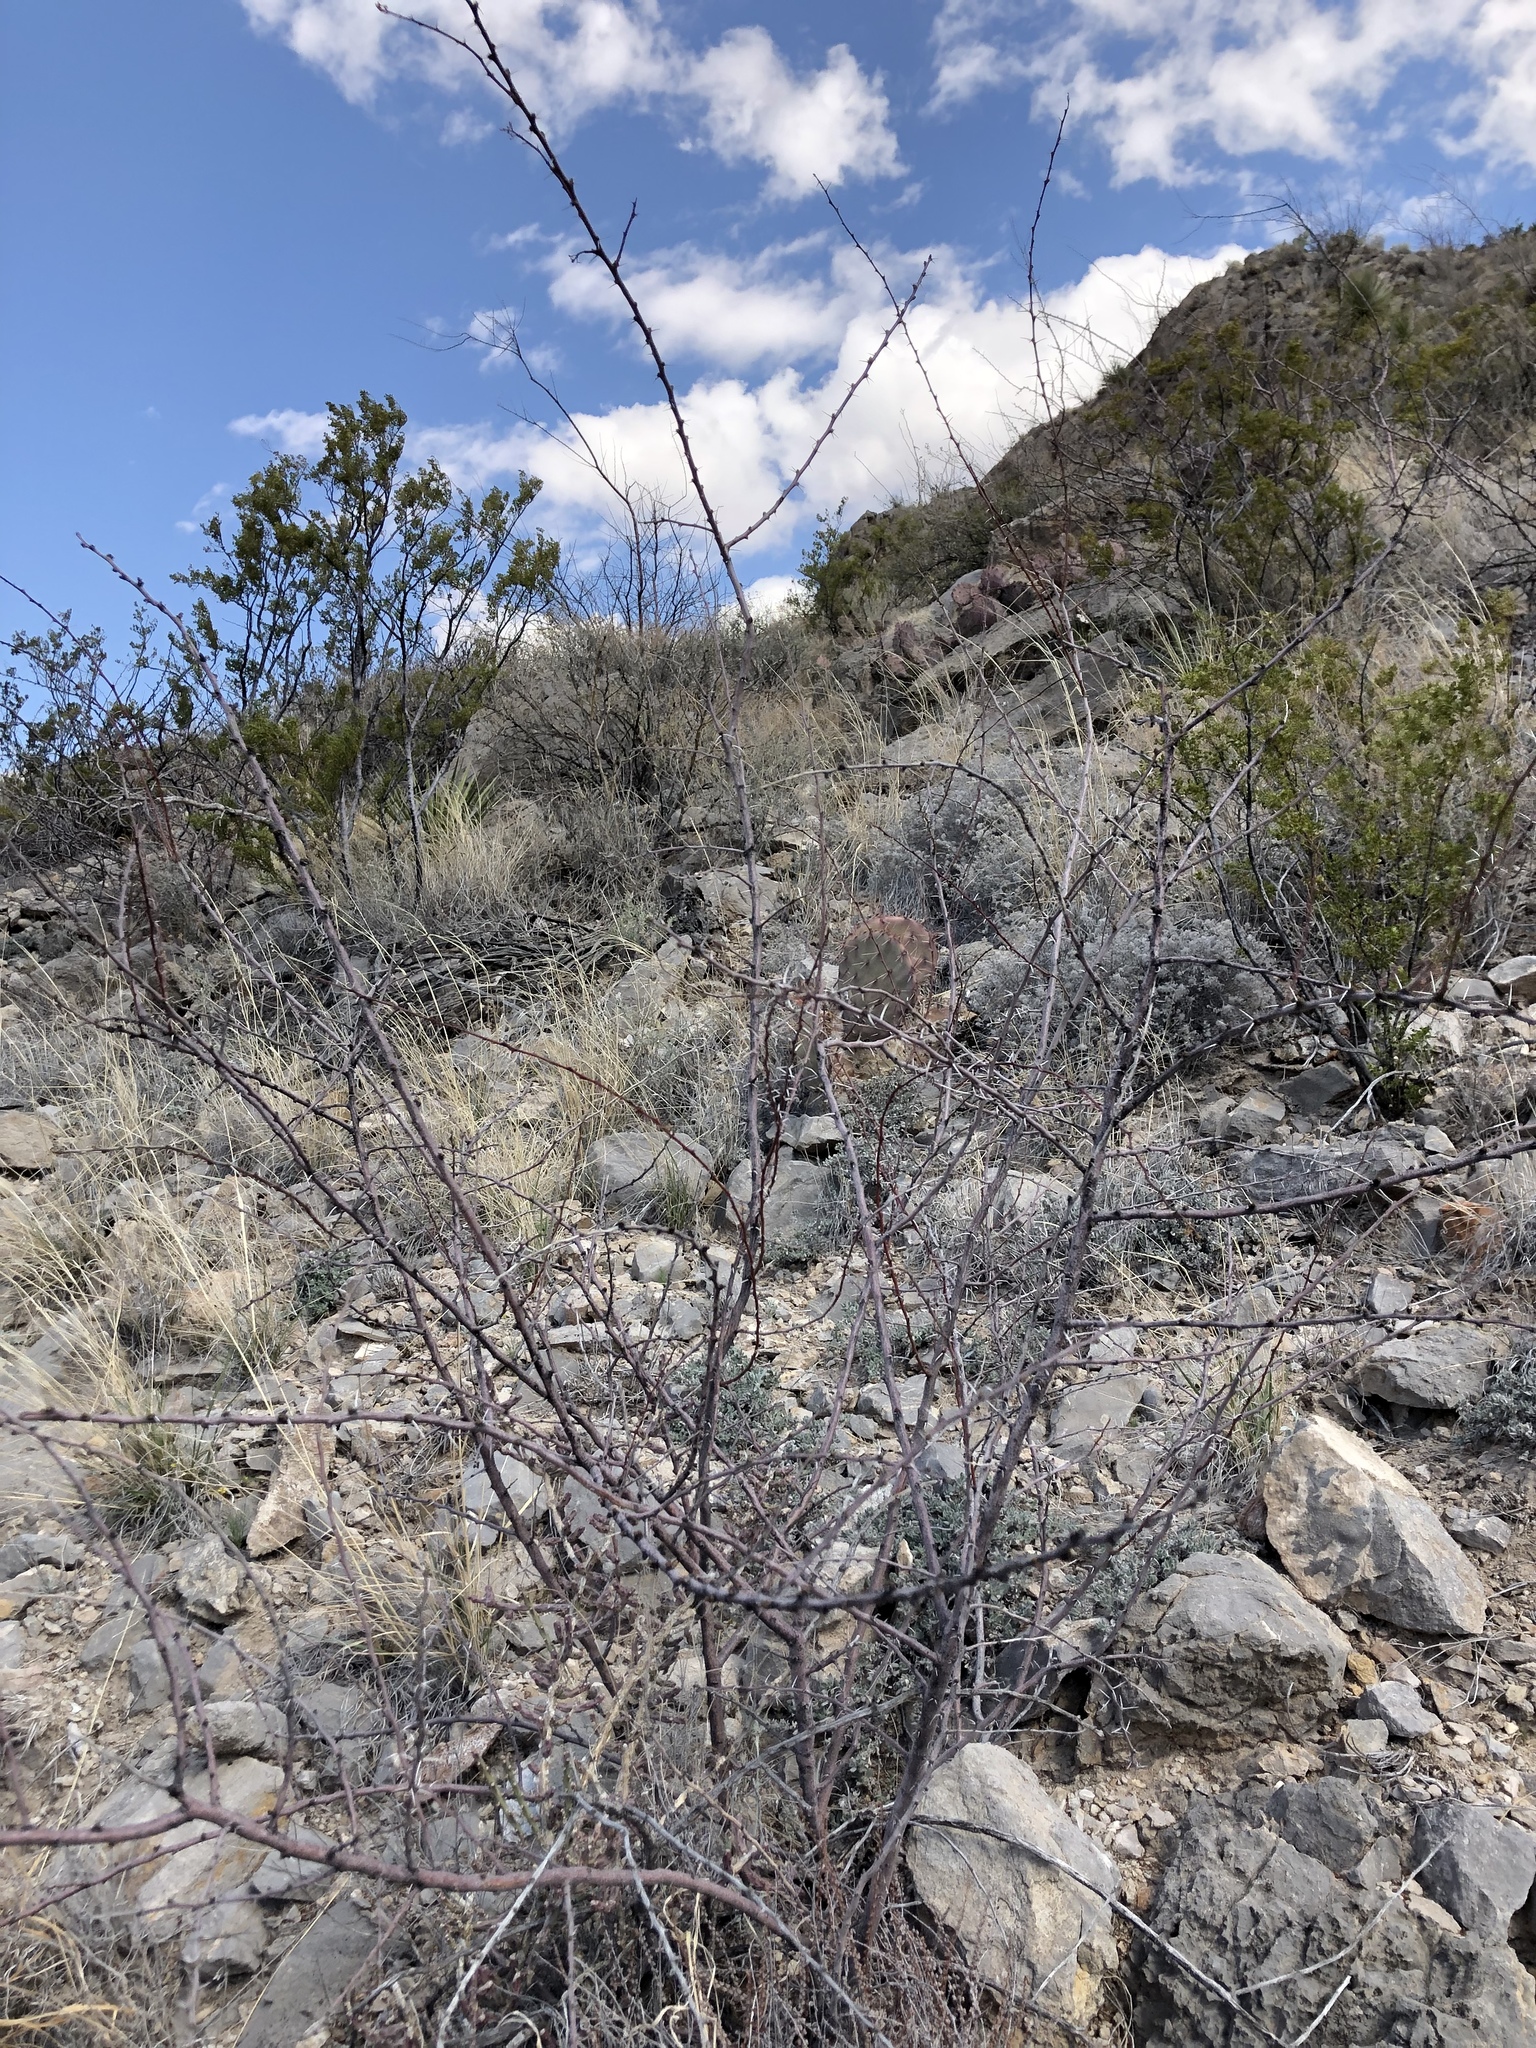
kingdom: Plantae
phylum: Tracheophyta
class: Magnoliopsida
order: Fabales
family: Fabaceae
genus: Vachellia
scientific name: Vachellia constricta
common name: Mescat acacia
